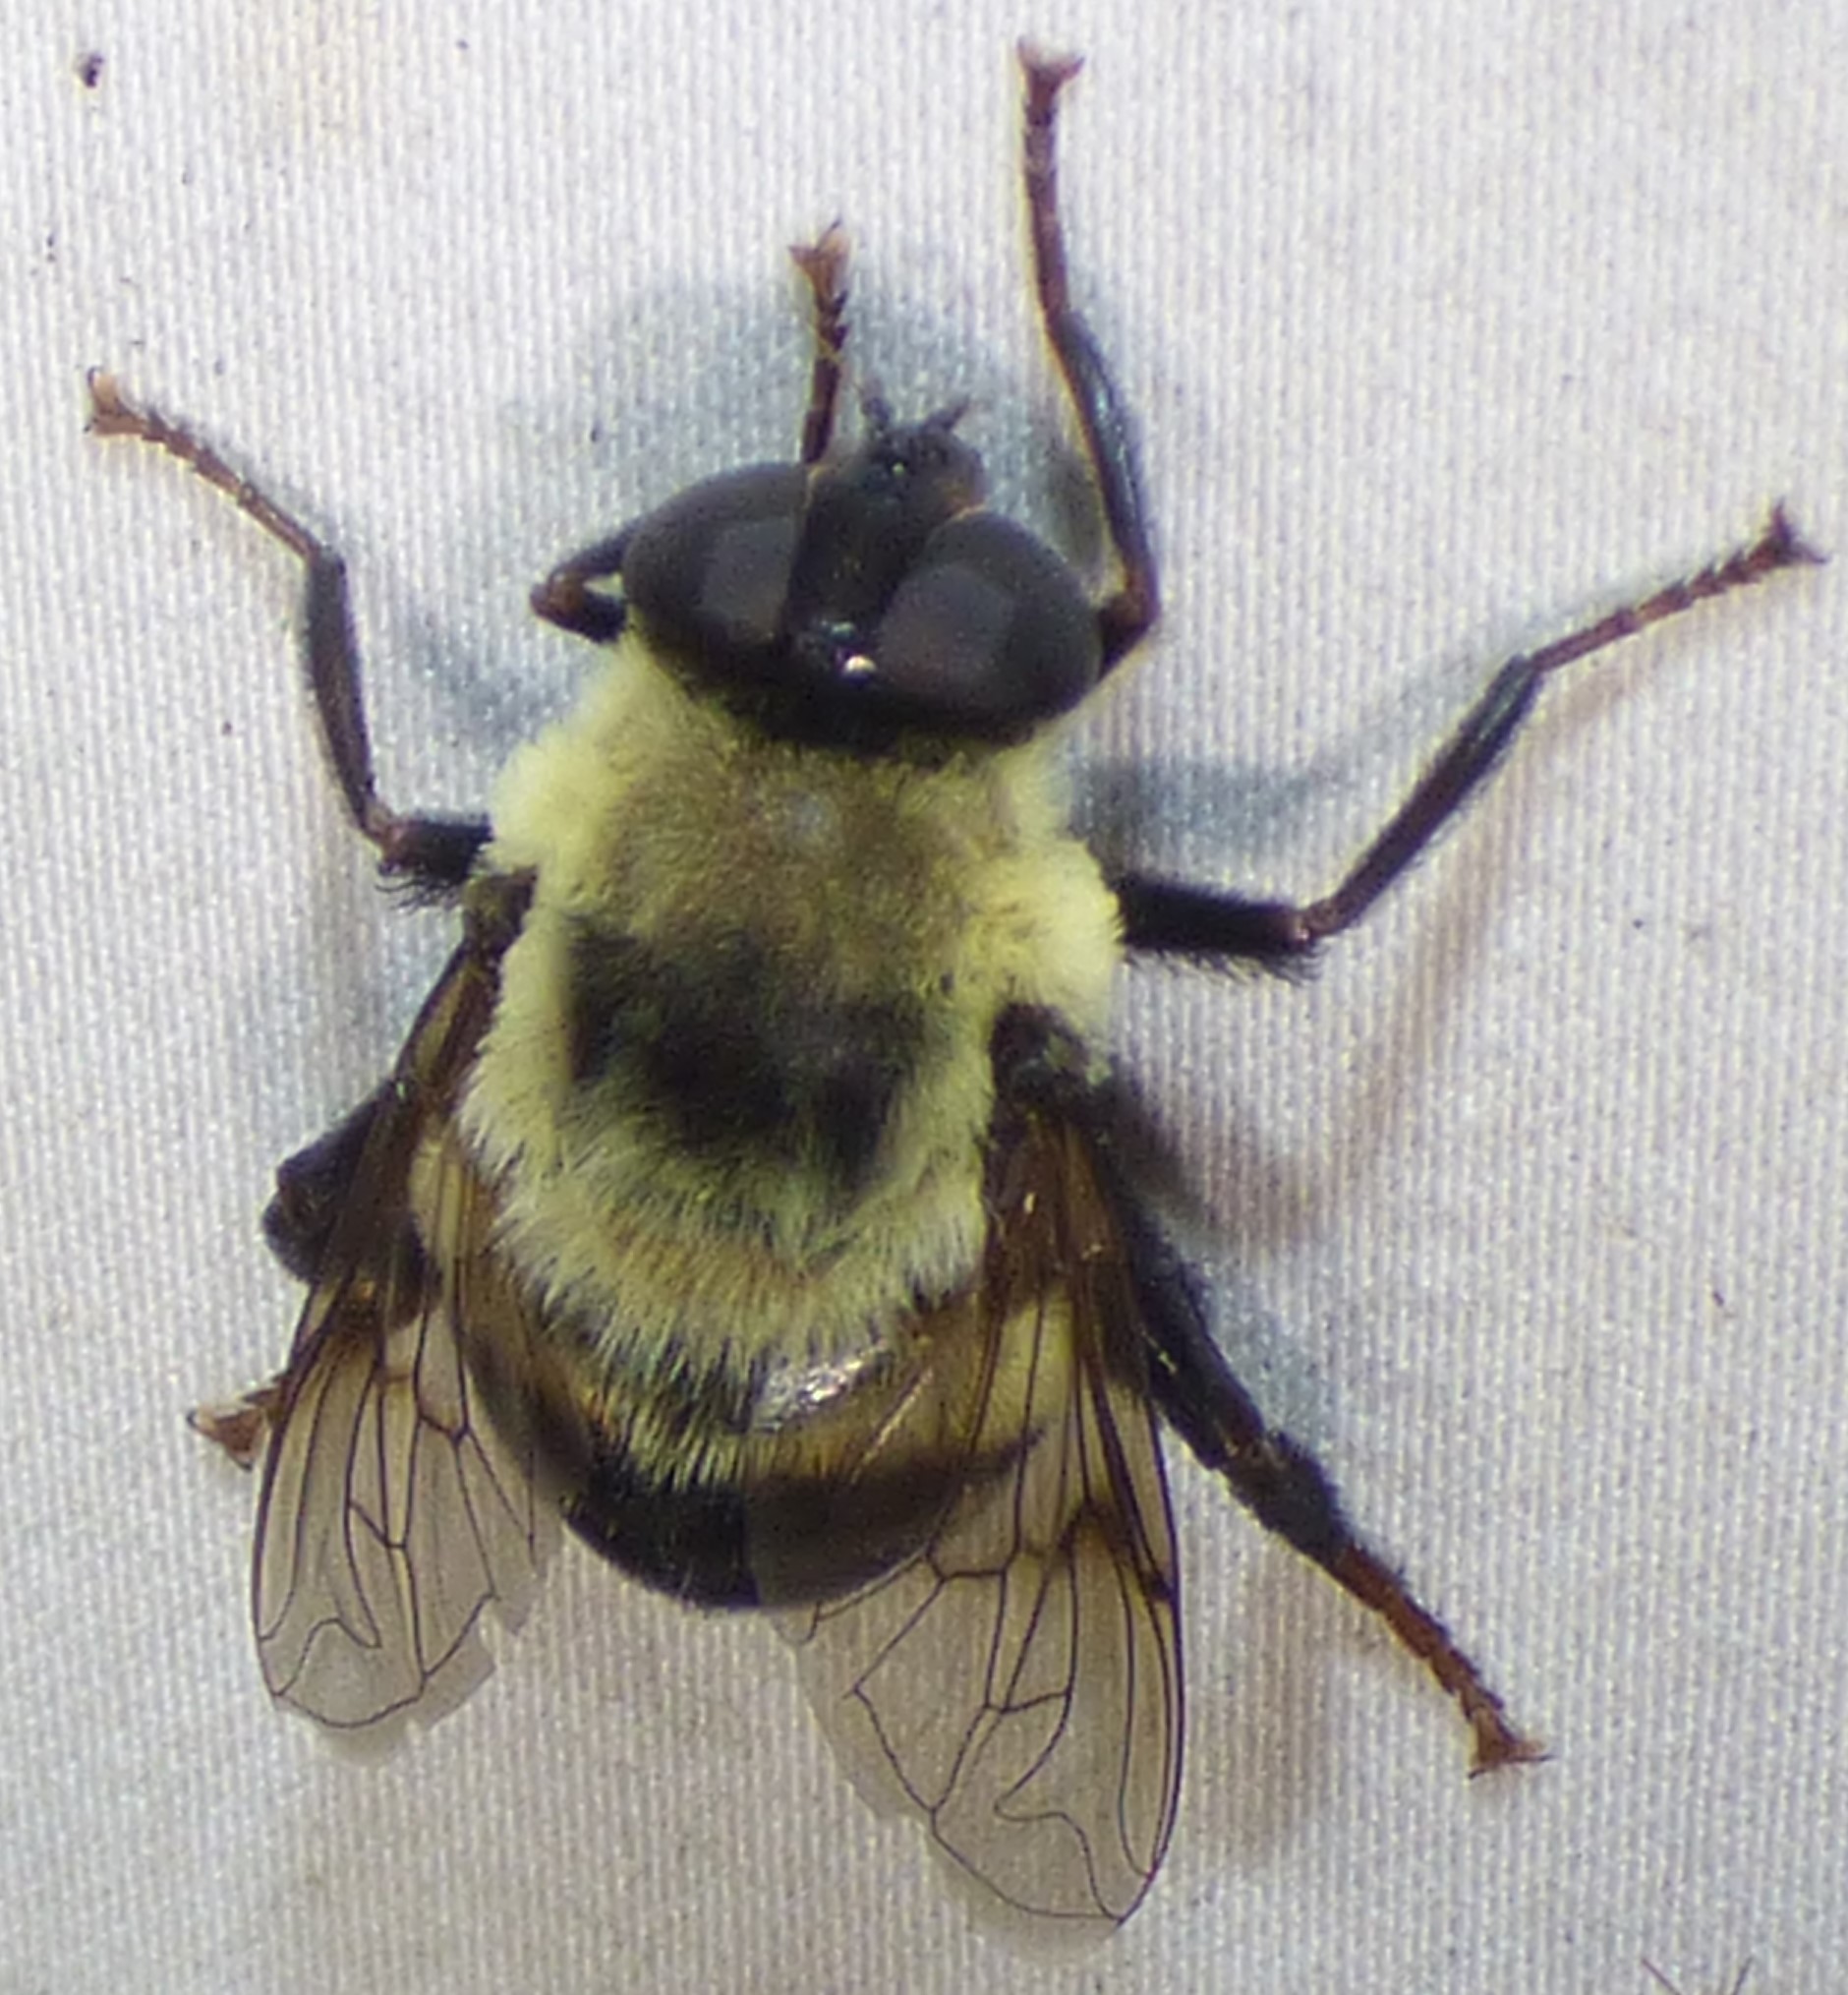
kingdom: Animalia
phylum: Arthropoda
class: Insecta
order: Diptera
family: Syrphidae
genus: Imatisma
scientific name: Imatisma posticata
